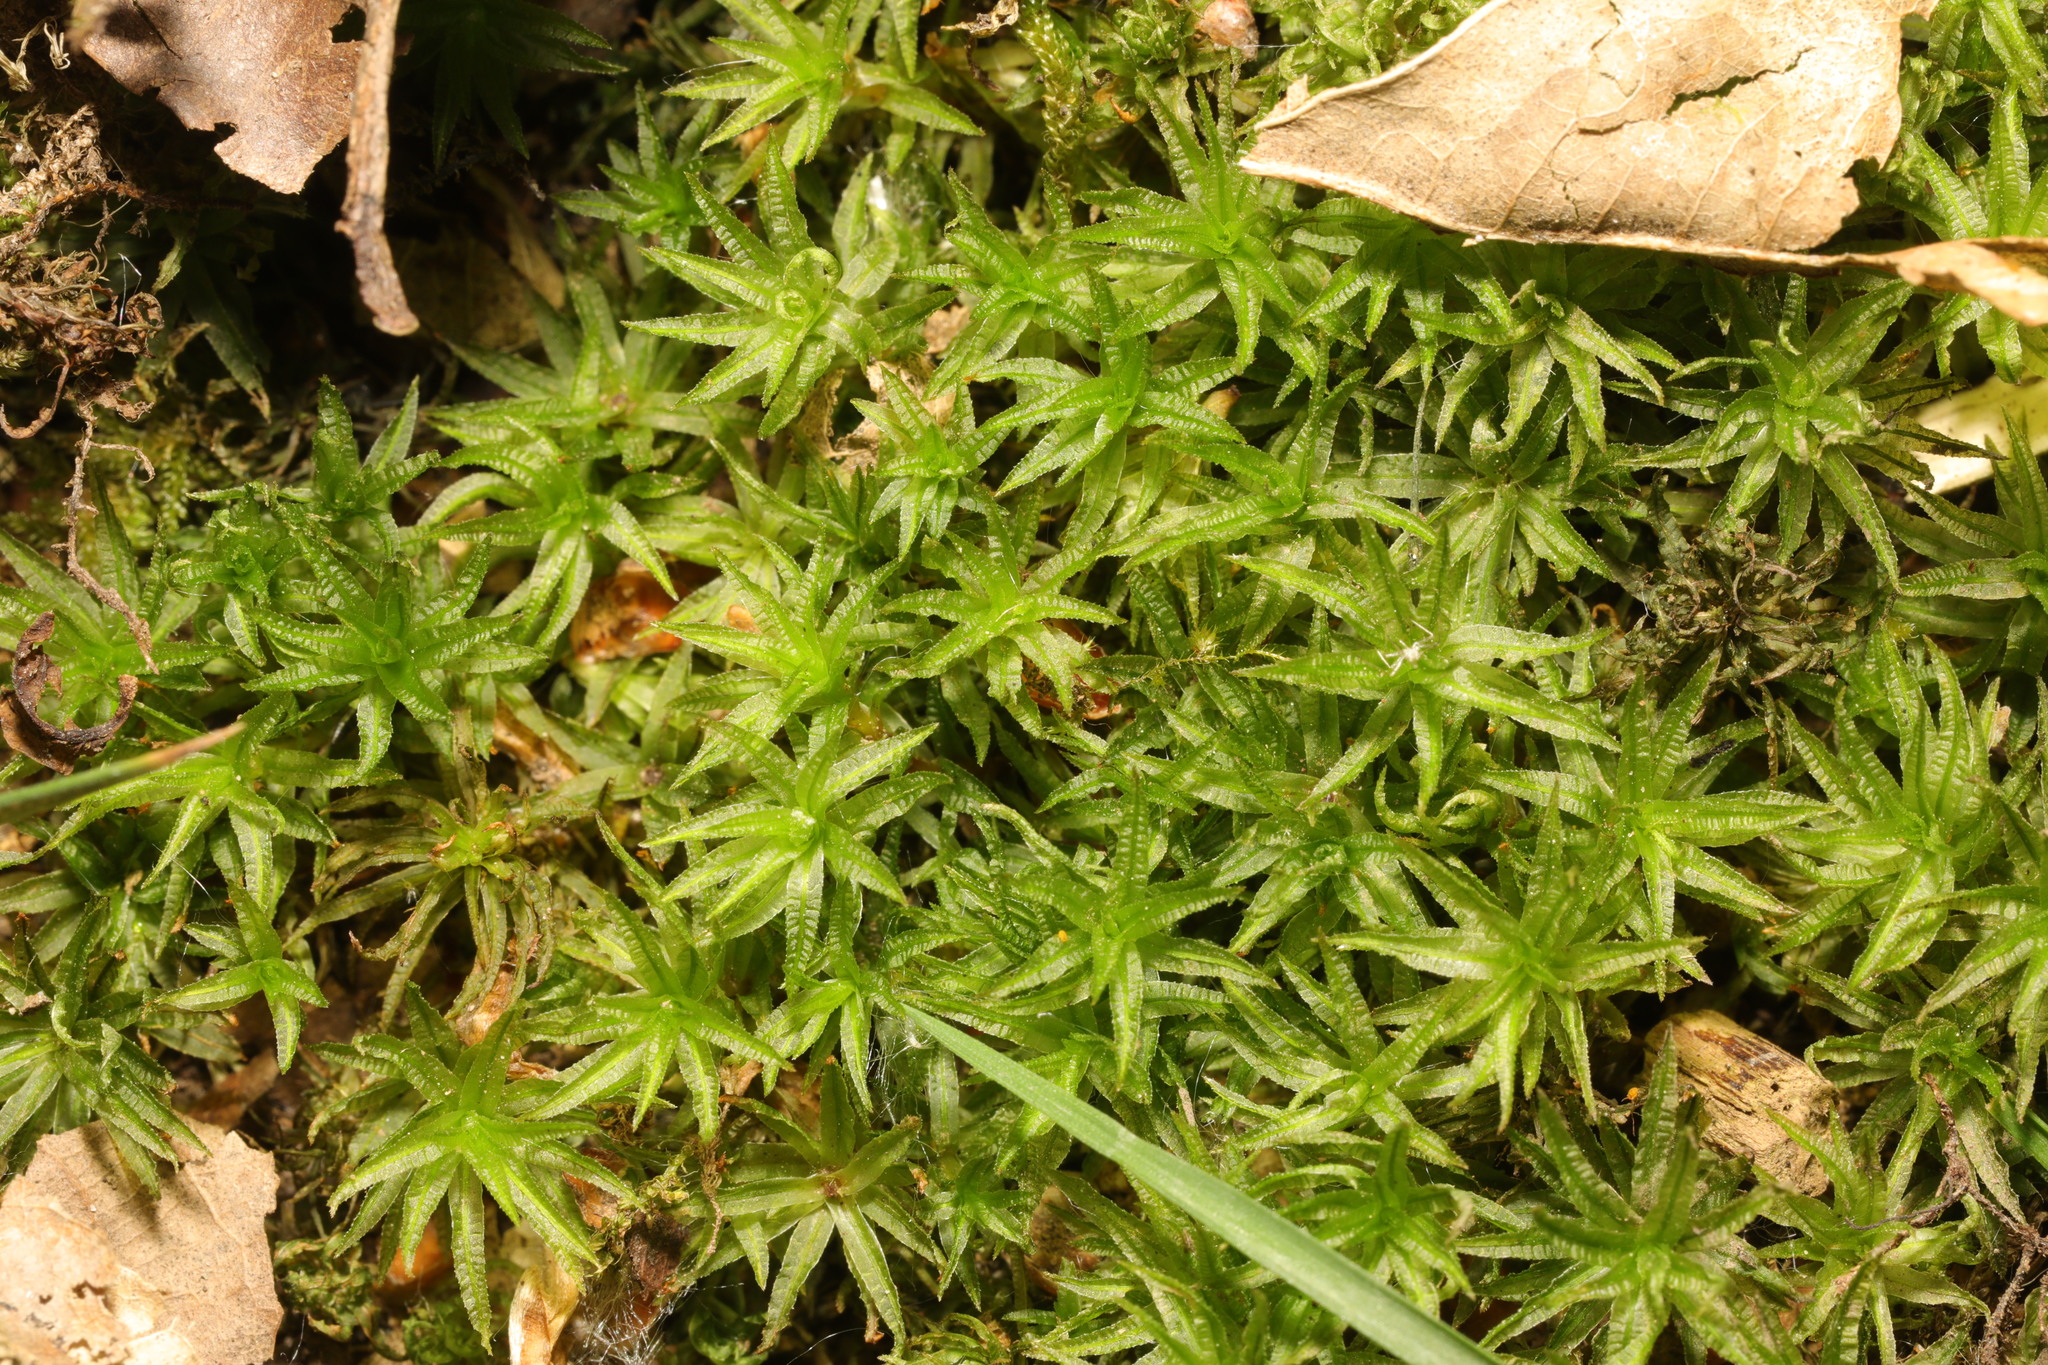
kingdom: Plantae
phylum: Bryophyta
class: Polytrichopsida
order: Polytrichales
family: Polytrichaceae
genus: Atrichum
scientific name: Atrichum undulatum
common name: Common smoothcap
